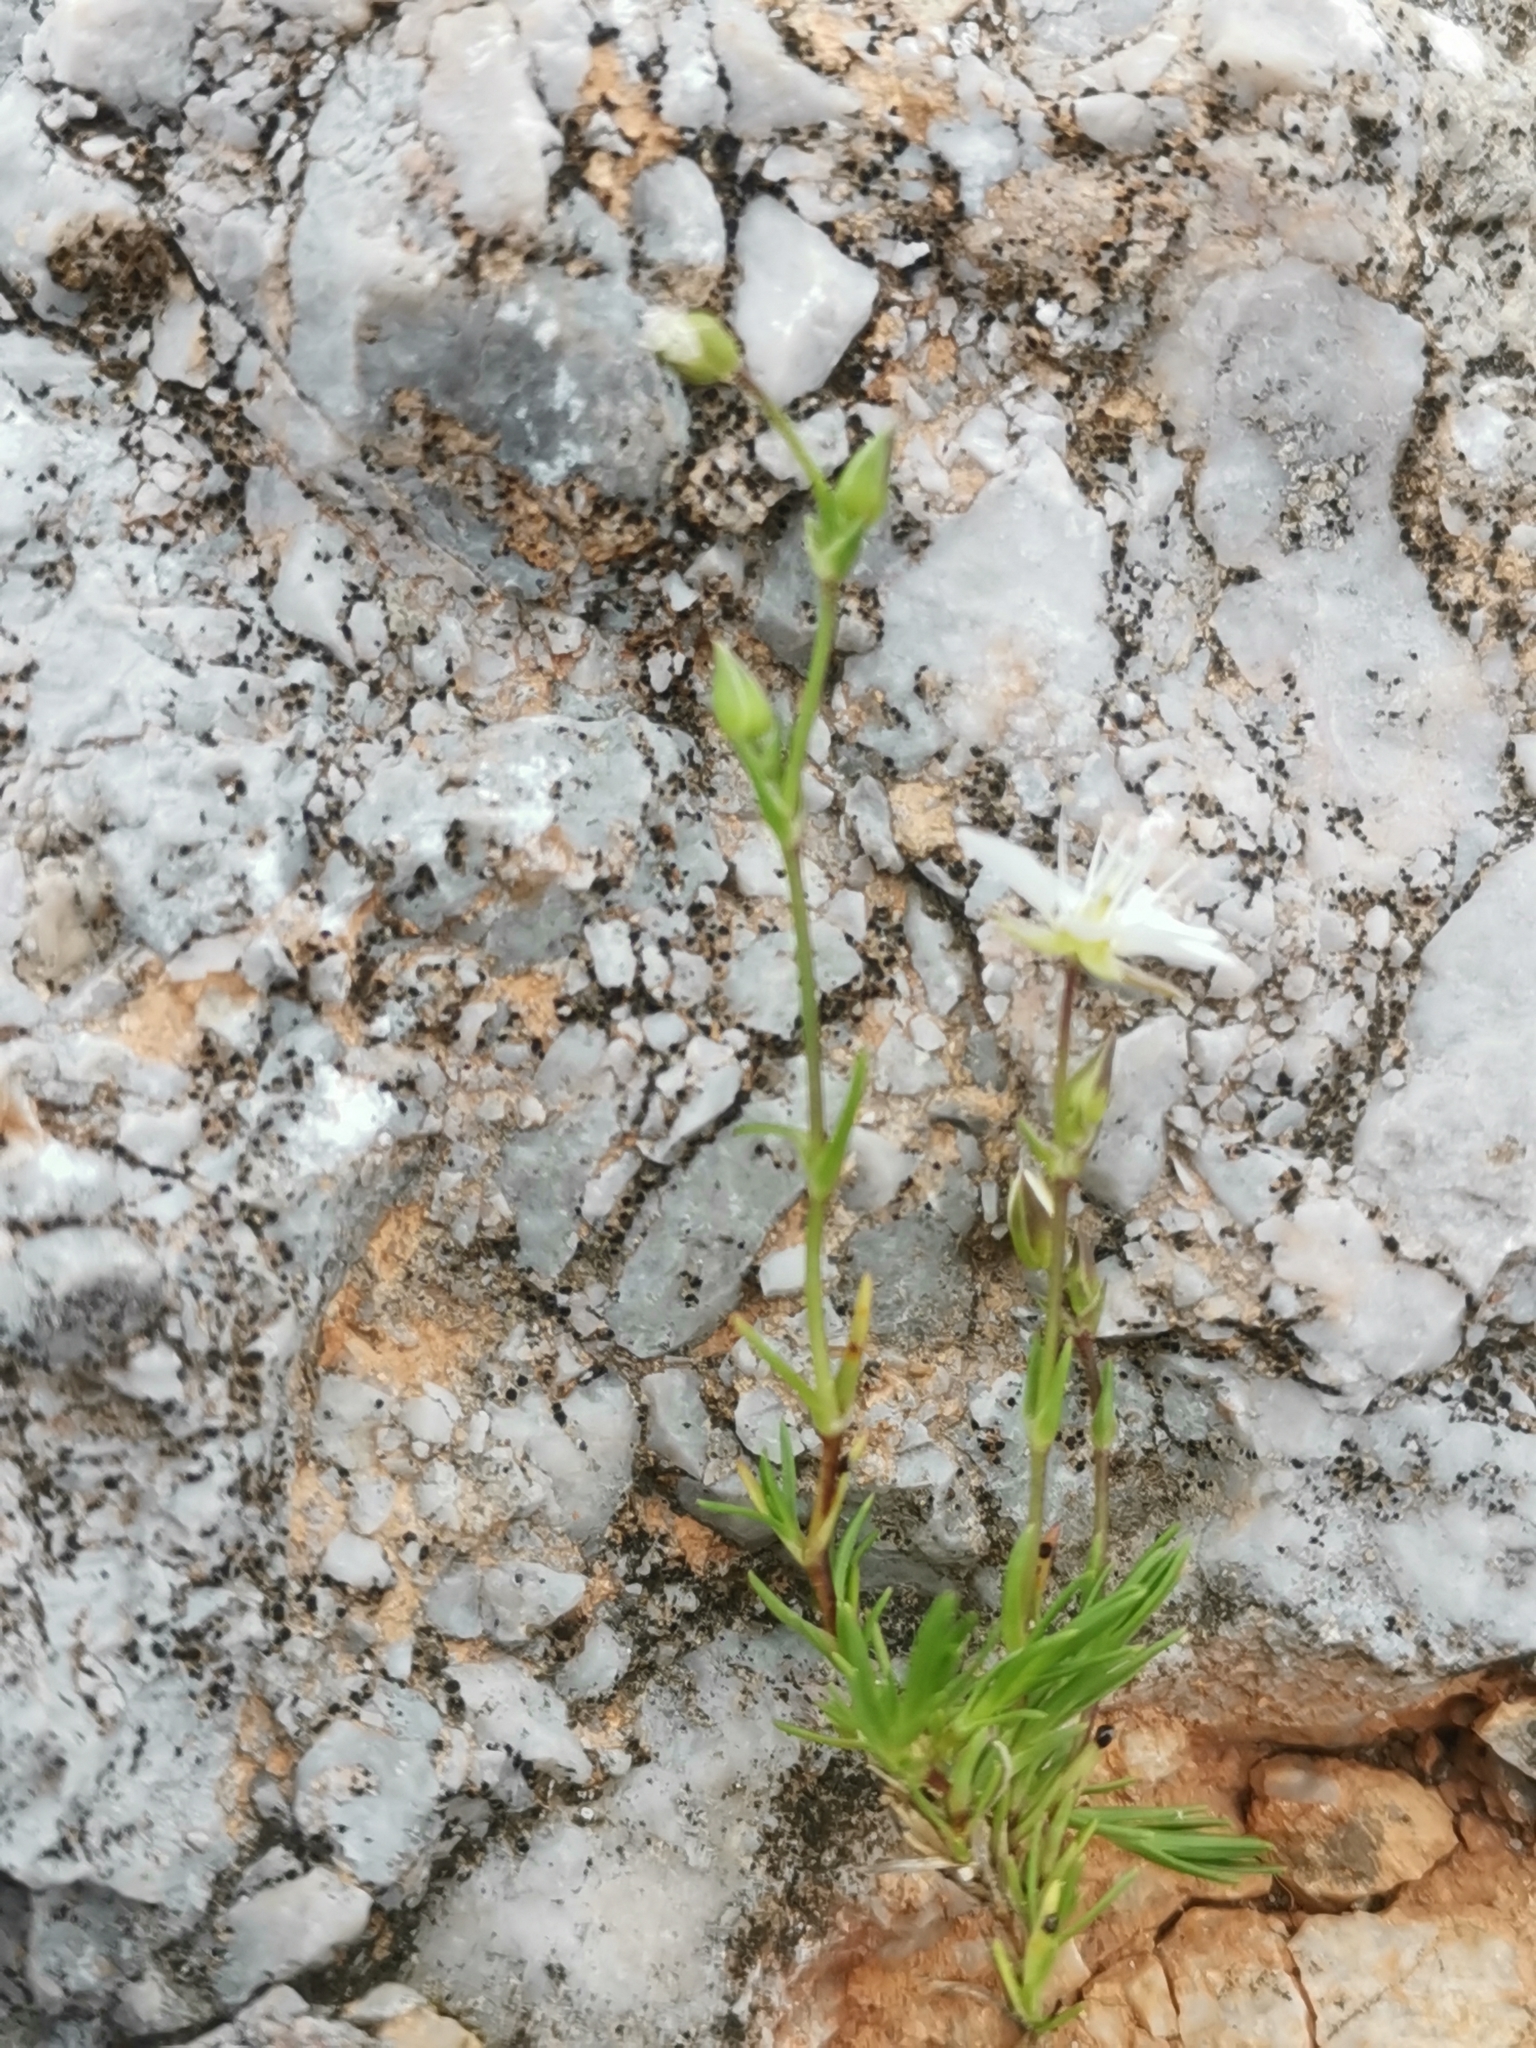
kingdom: Plantae
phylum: Tracheophyta
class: Magnoliopsida
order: Caryophyllales
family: Caryophyllaceae
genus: Sabulina
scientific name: Sabulina verna
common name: Spring sandwort
